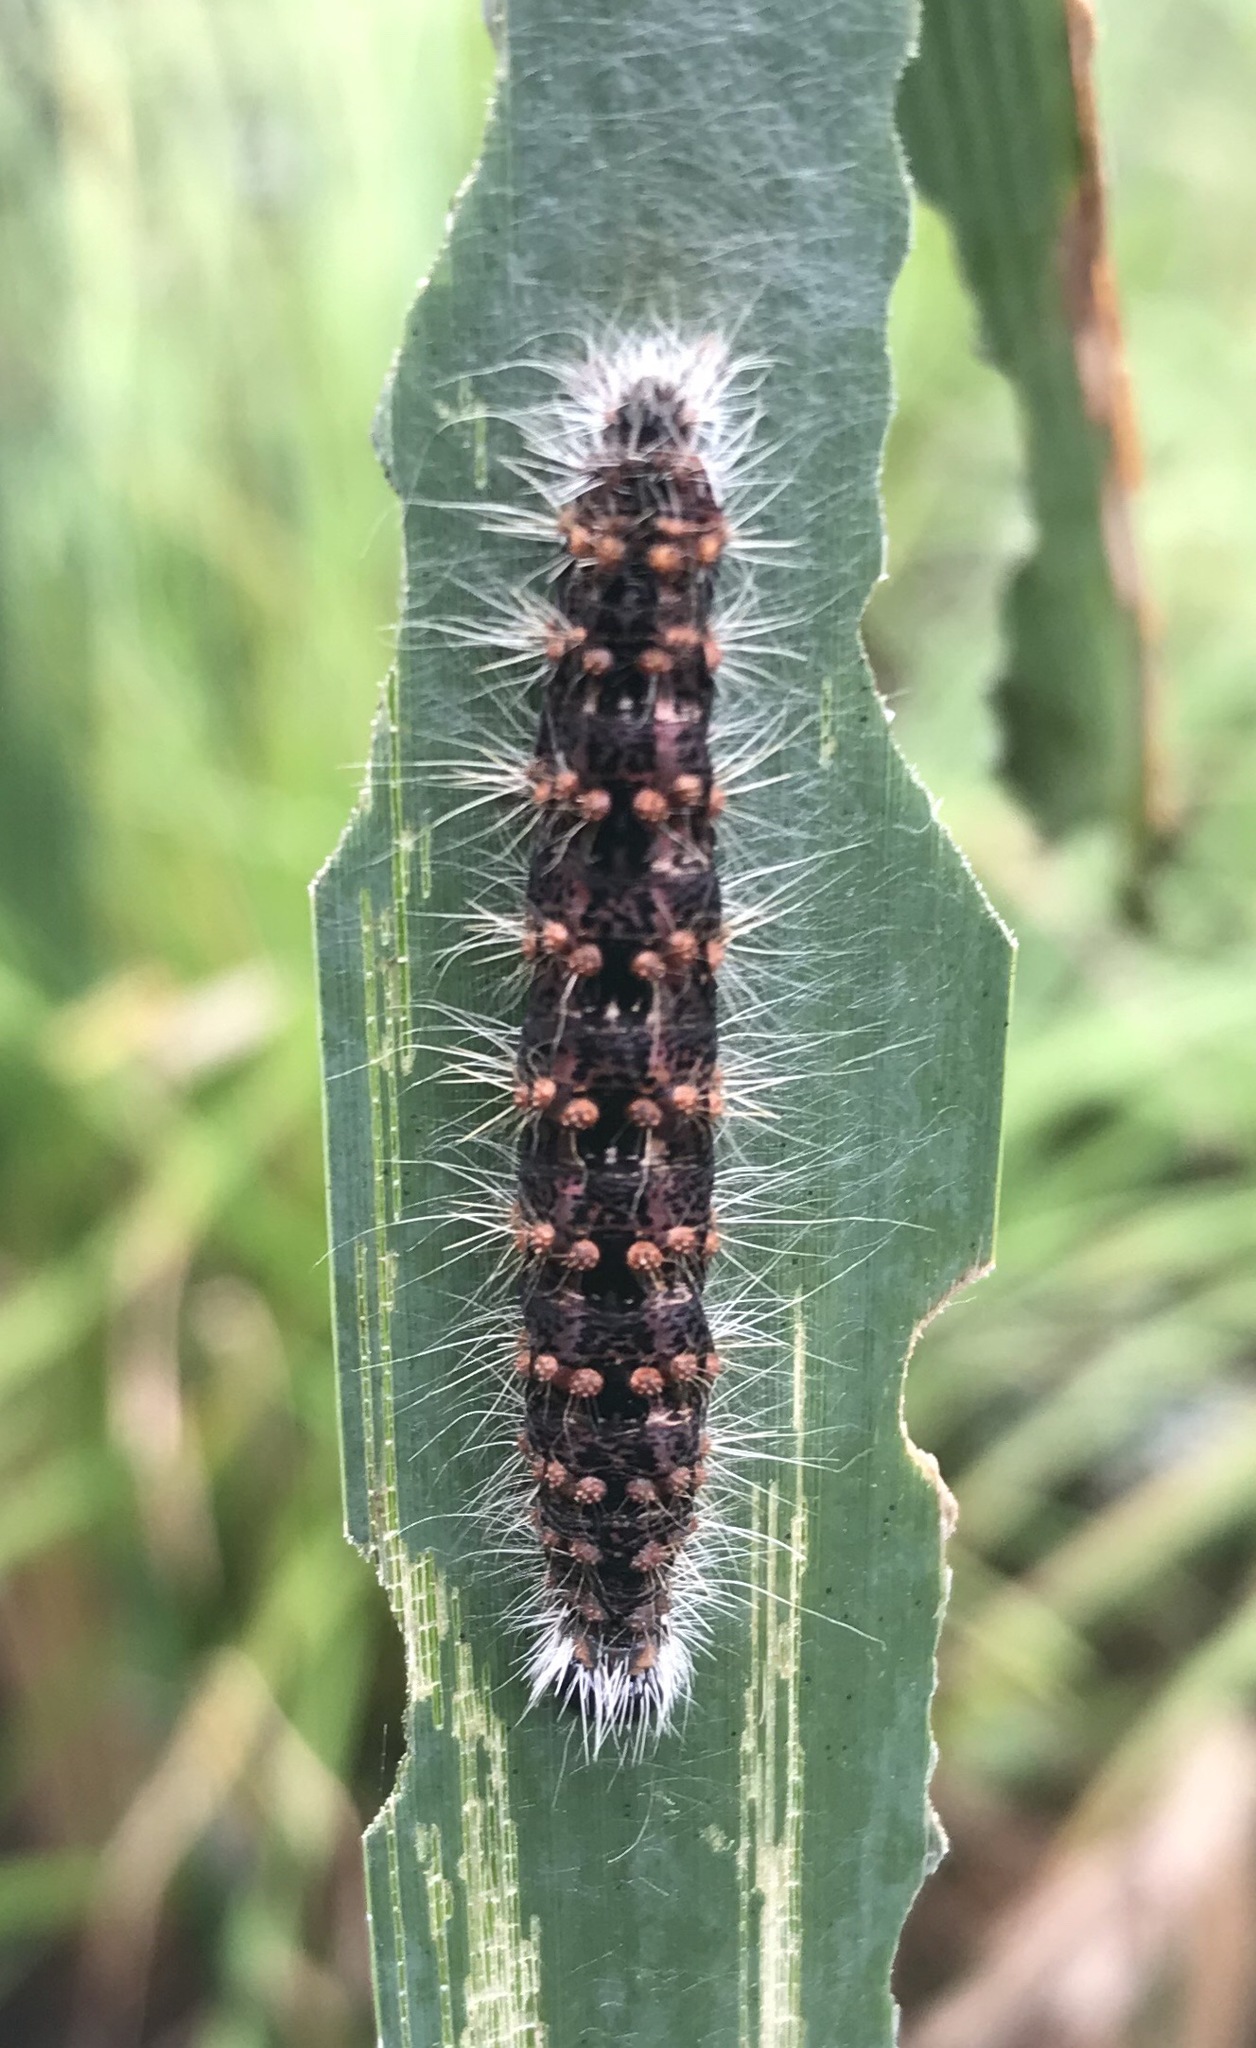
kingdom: Animalia
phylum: Arthropoda
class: Insecta
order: Lepidoptera
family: Noctuidae
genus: Acronicta
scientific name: Acronicta insularis
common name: Henry's marsh moth
